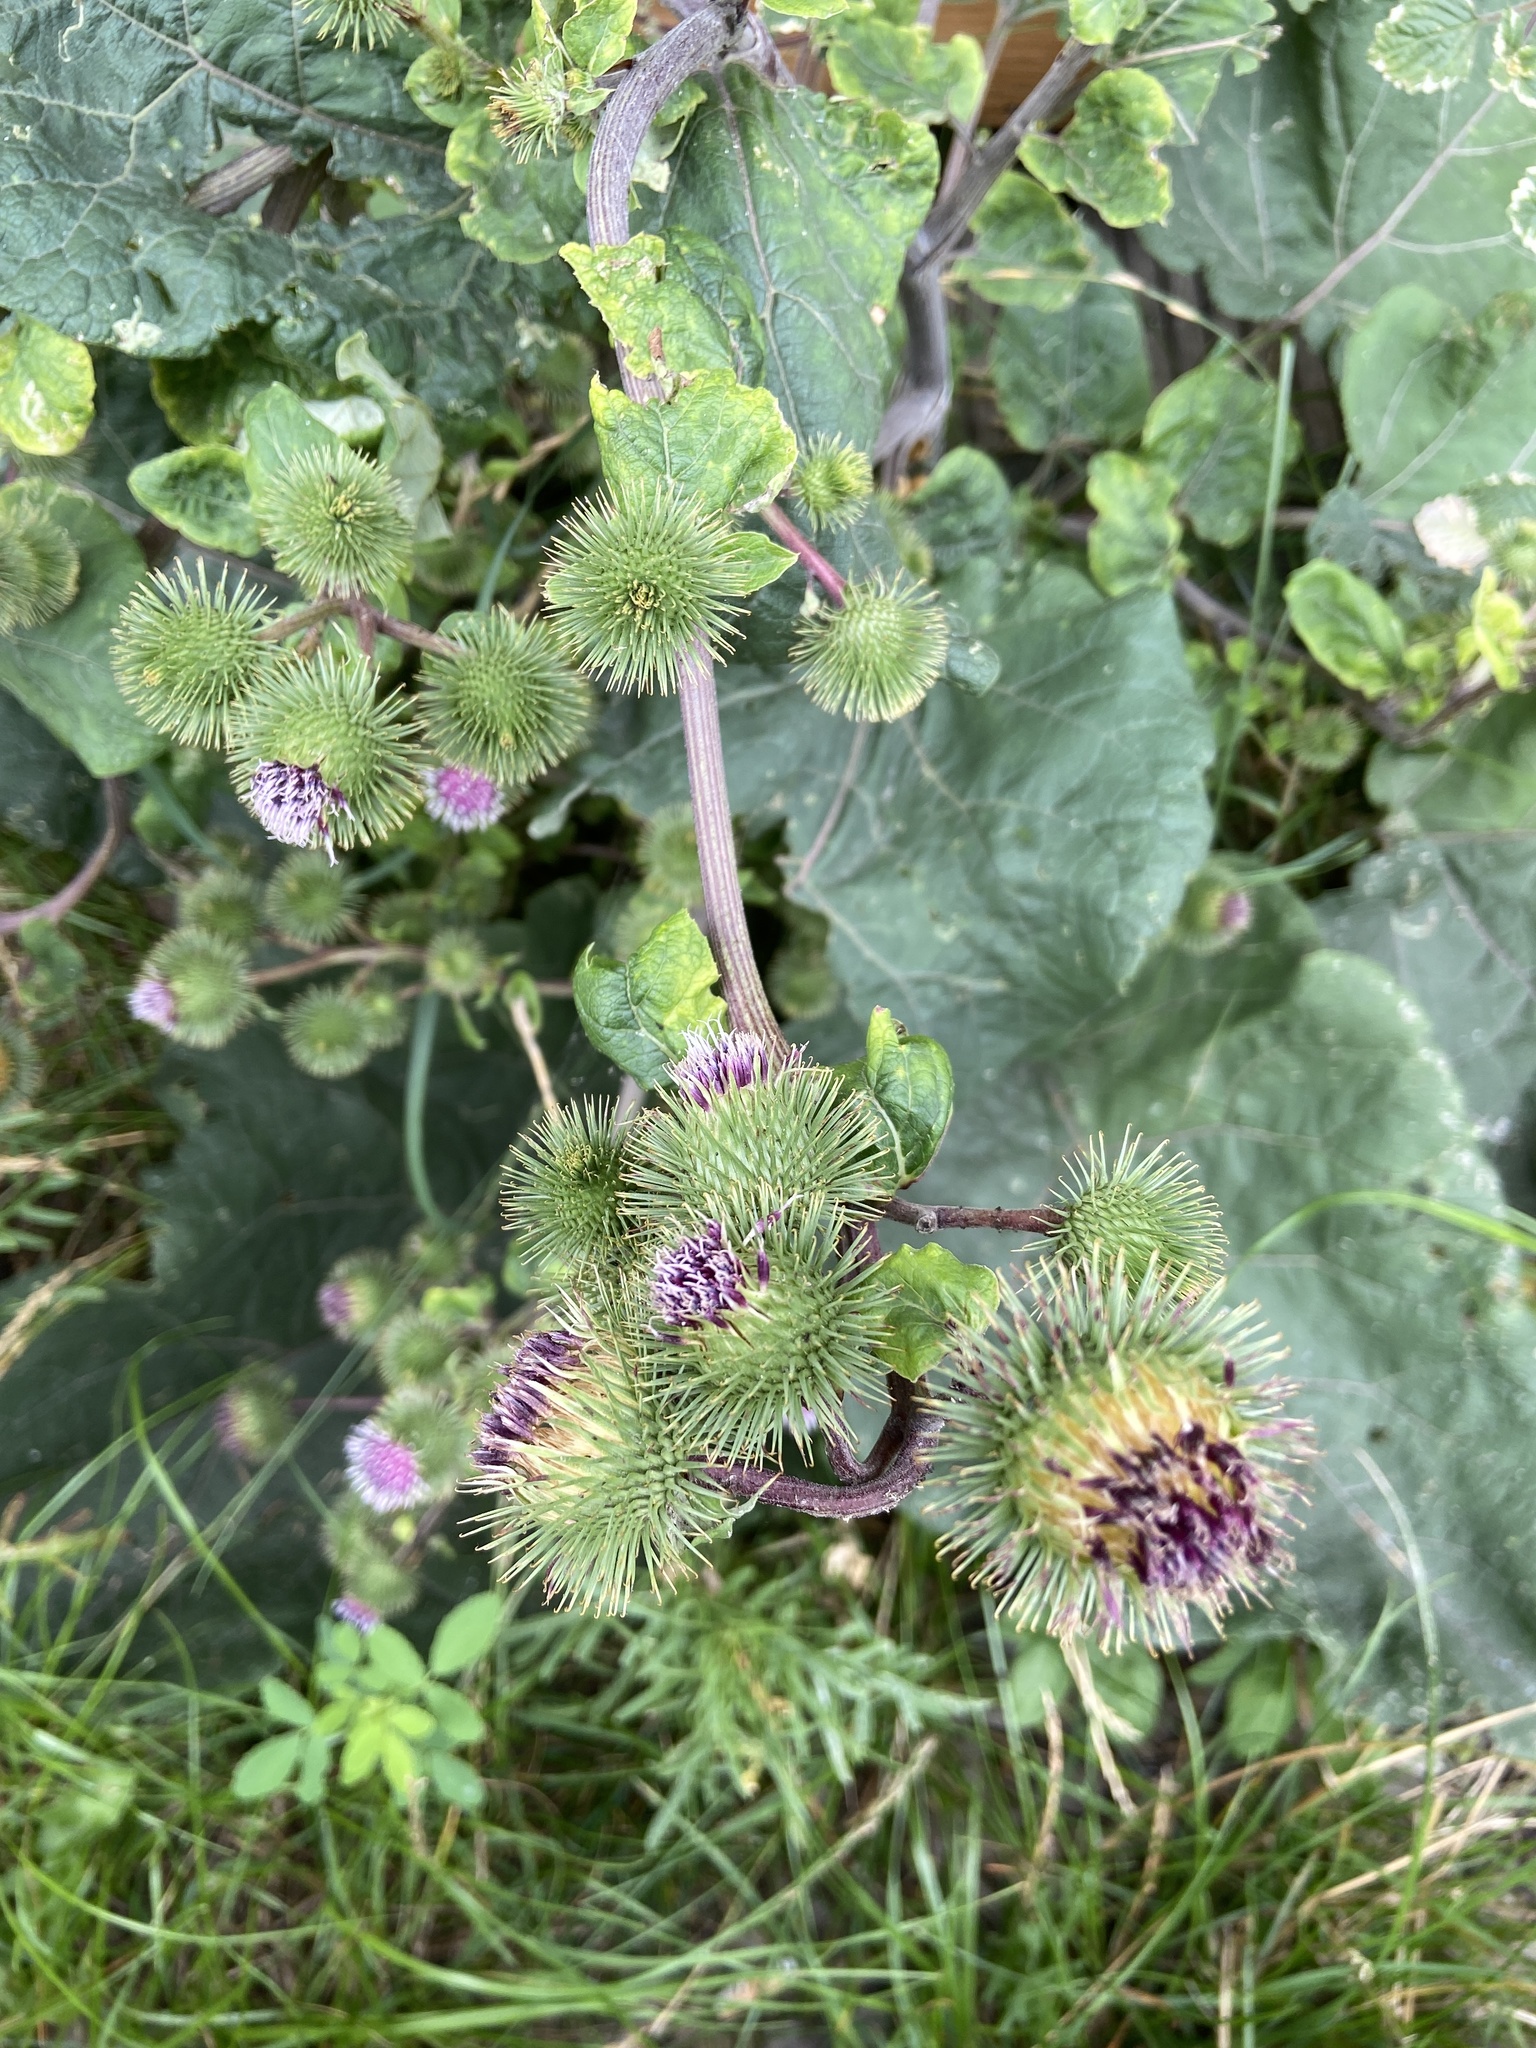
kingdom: Plantae
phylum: Tracheophyta
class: Magnoliopsida
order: Asterales
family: Asteraceae
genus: Arctium
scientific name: Arctium lappa
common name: Greater burdock
